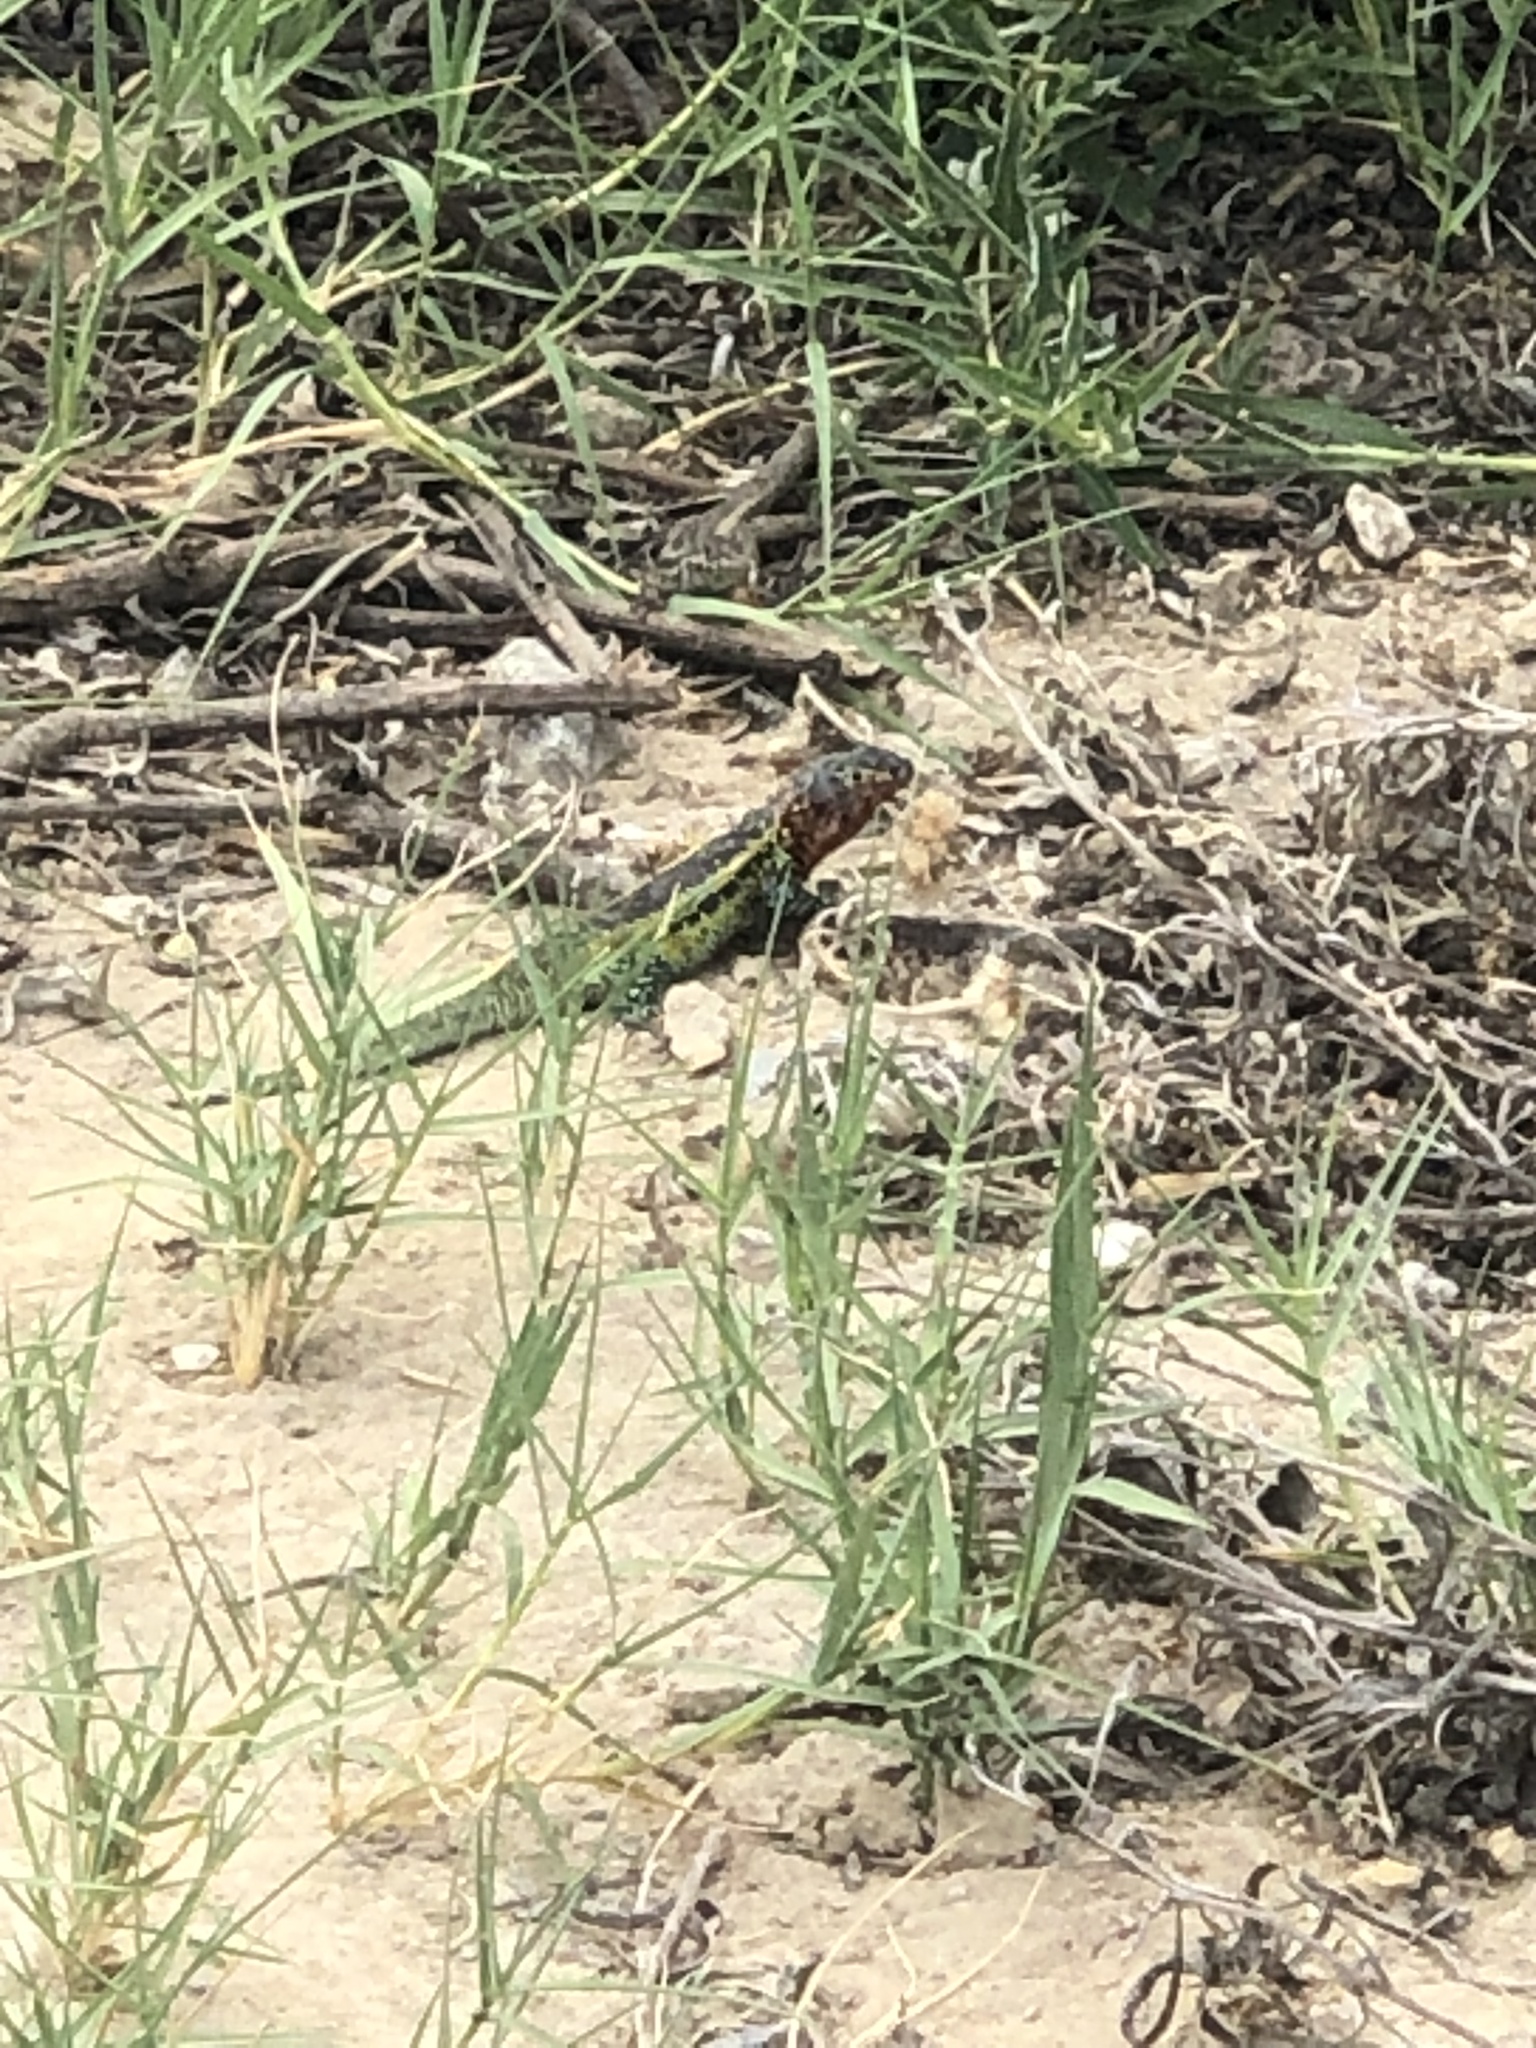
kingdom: Animalia
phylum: Chordata
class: Squamata
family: Liolaemidae
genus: Liolaemus
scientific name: Liolaemus zapallarensis
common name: Zapallaren tree iguana
